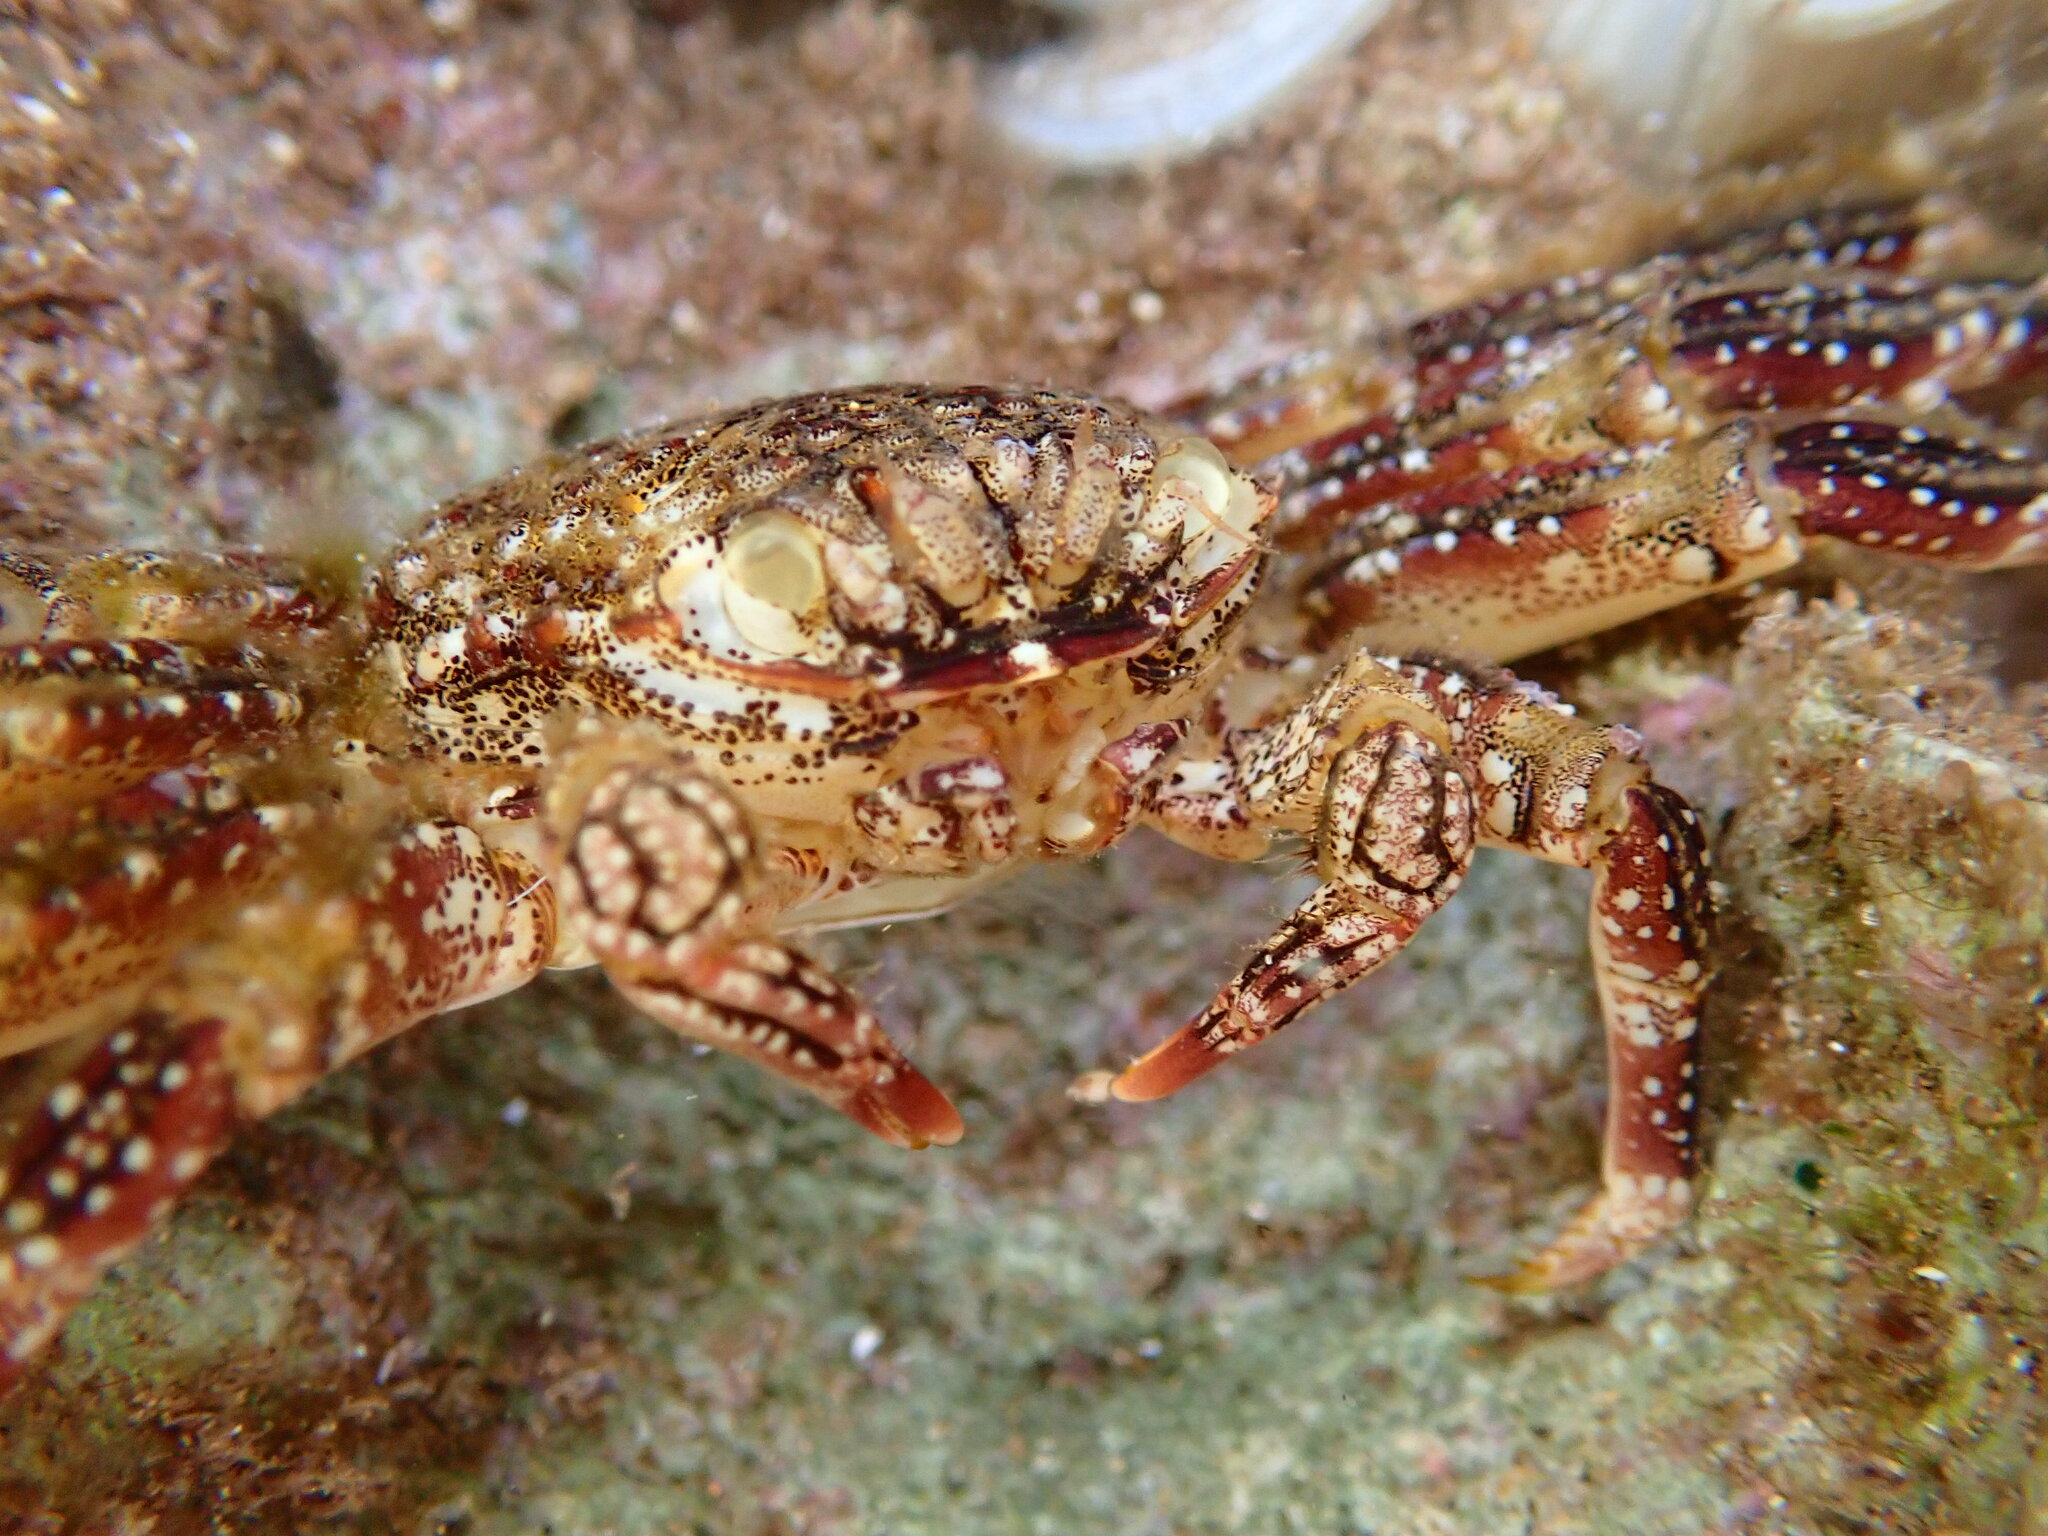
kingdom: Animalia
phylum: Arthropoda
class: Malacostraca
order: Decapoda
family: Plagusiidae
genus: Plagusia
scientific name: Plagusia squamosa
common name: Scaly rock crab
